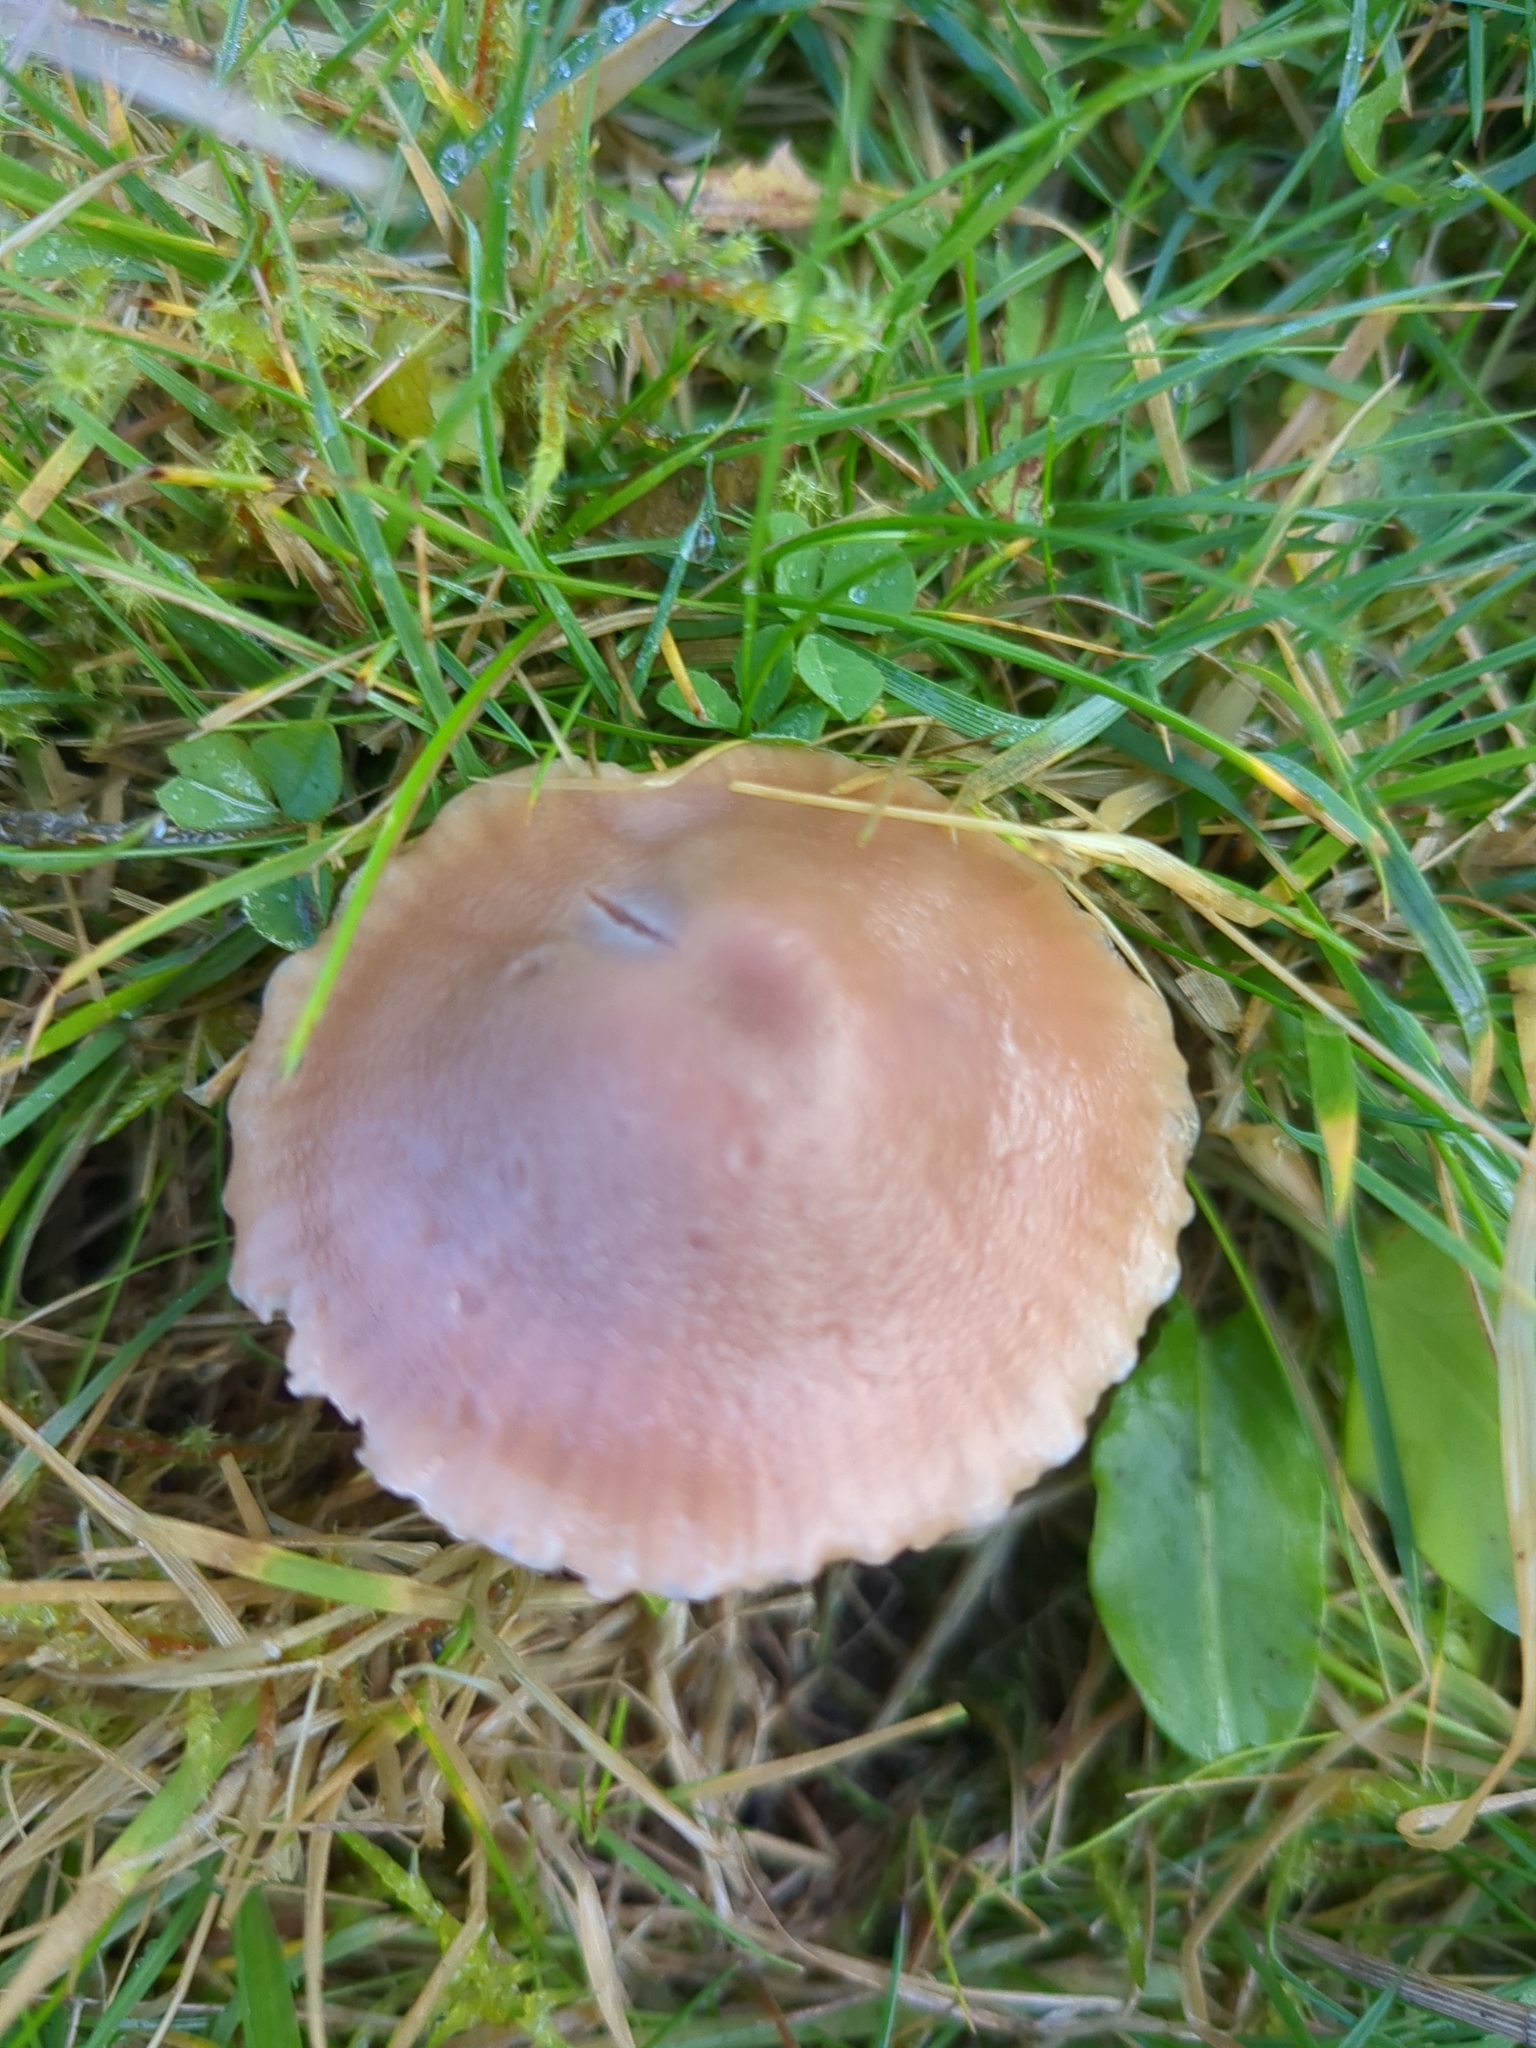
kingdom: Fungi
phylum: Basidiomycota
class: Agaricomycetes
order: Agaricales
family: Hygrophoraceae
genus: Gliophorus
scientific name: Gliophorus reginae
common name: Jubilee waxcap
